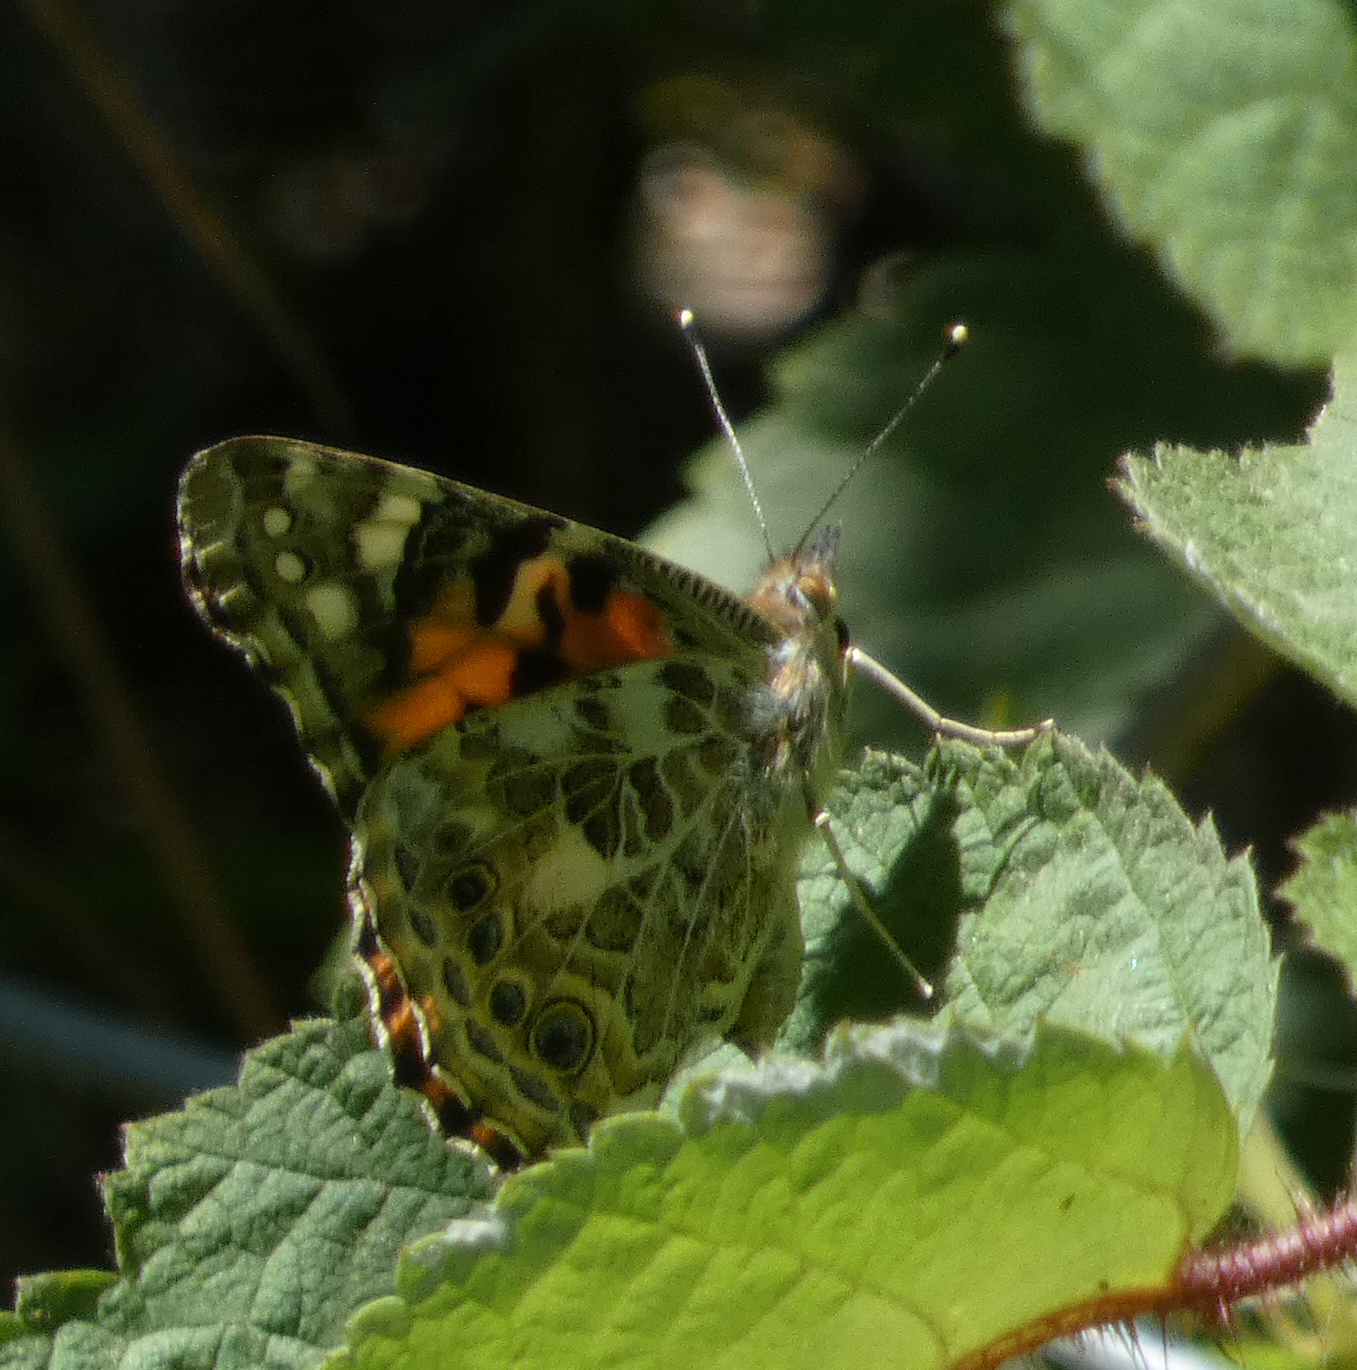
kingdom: Animalia
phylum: Arthropoda
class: Insecta
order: Lepidoptera
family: Nymphalidae
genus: Vanessa
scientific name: Vanessa cardui
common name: Painted lady
